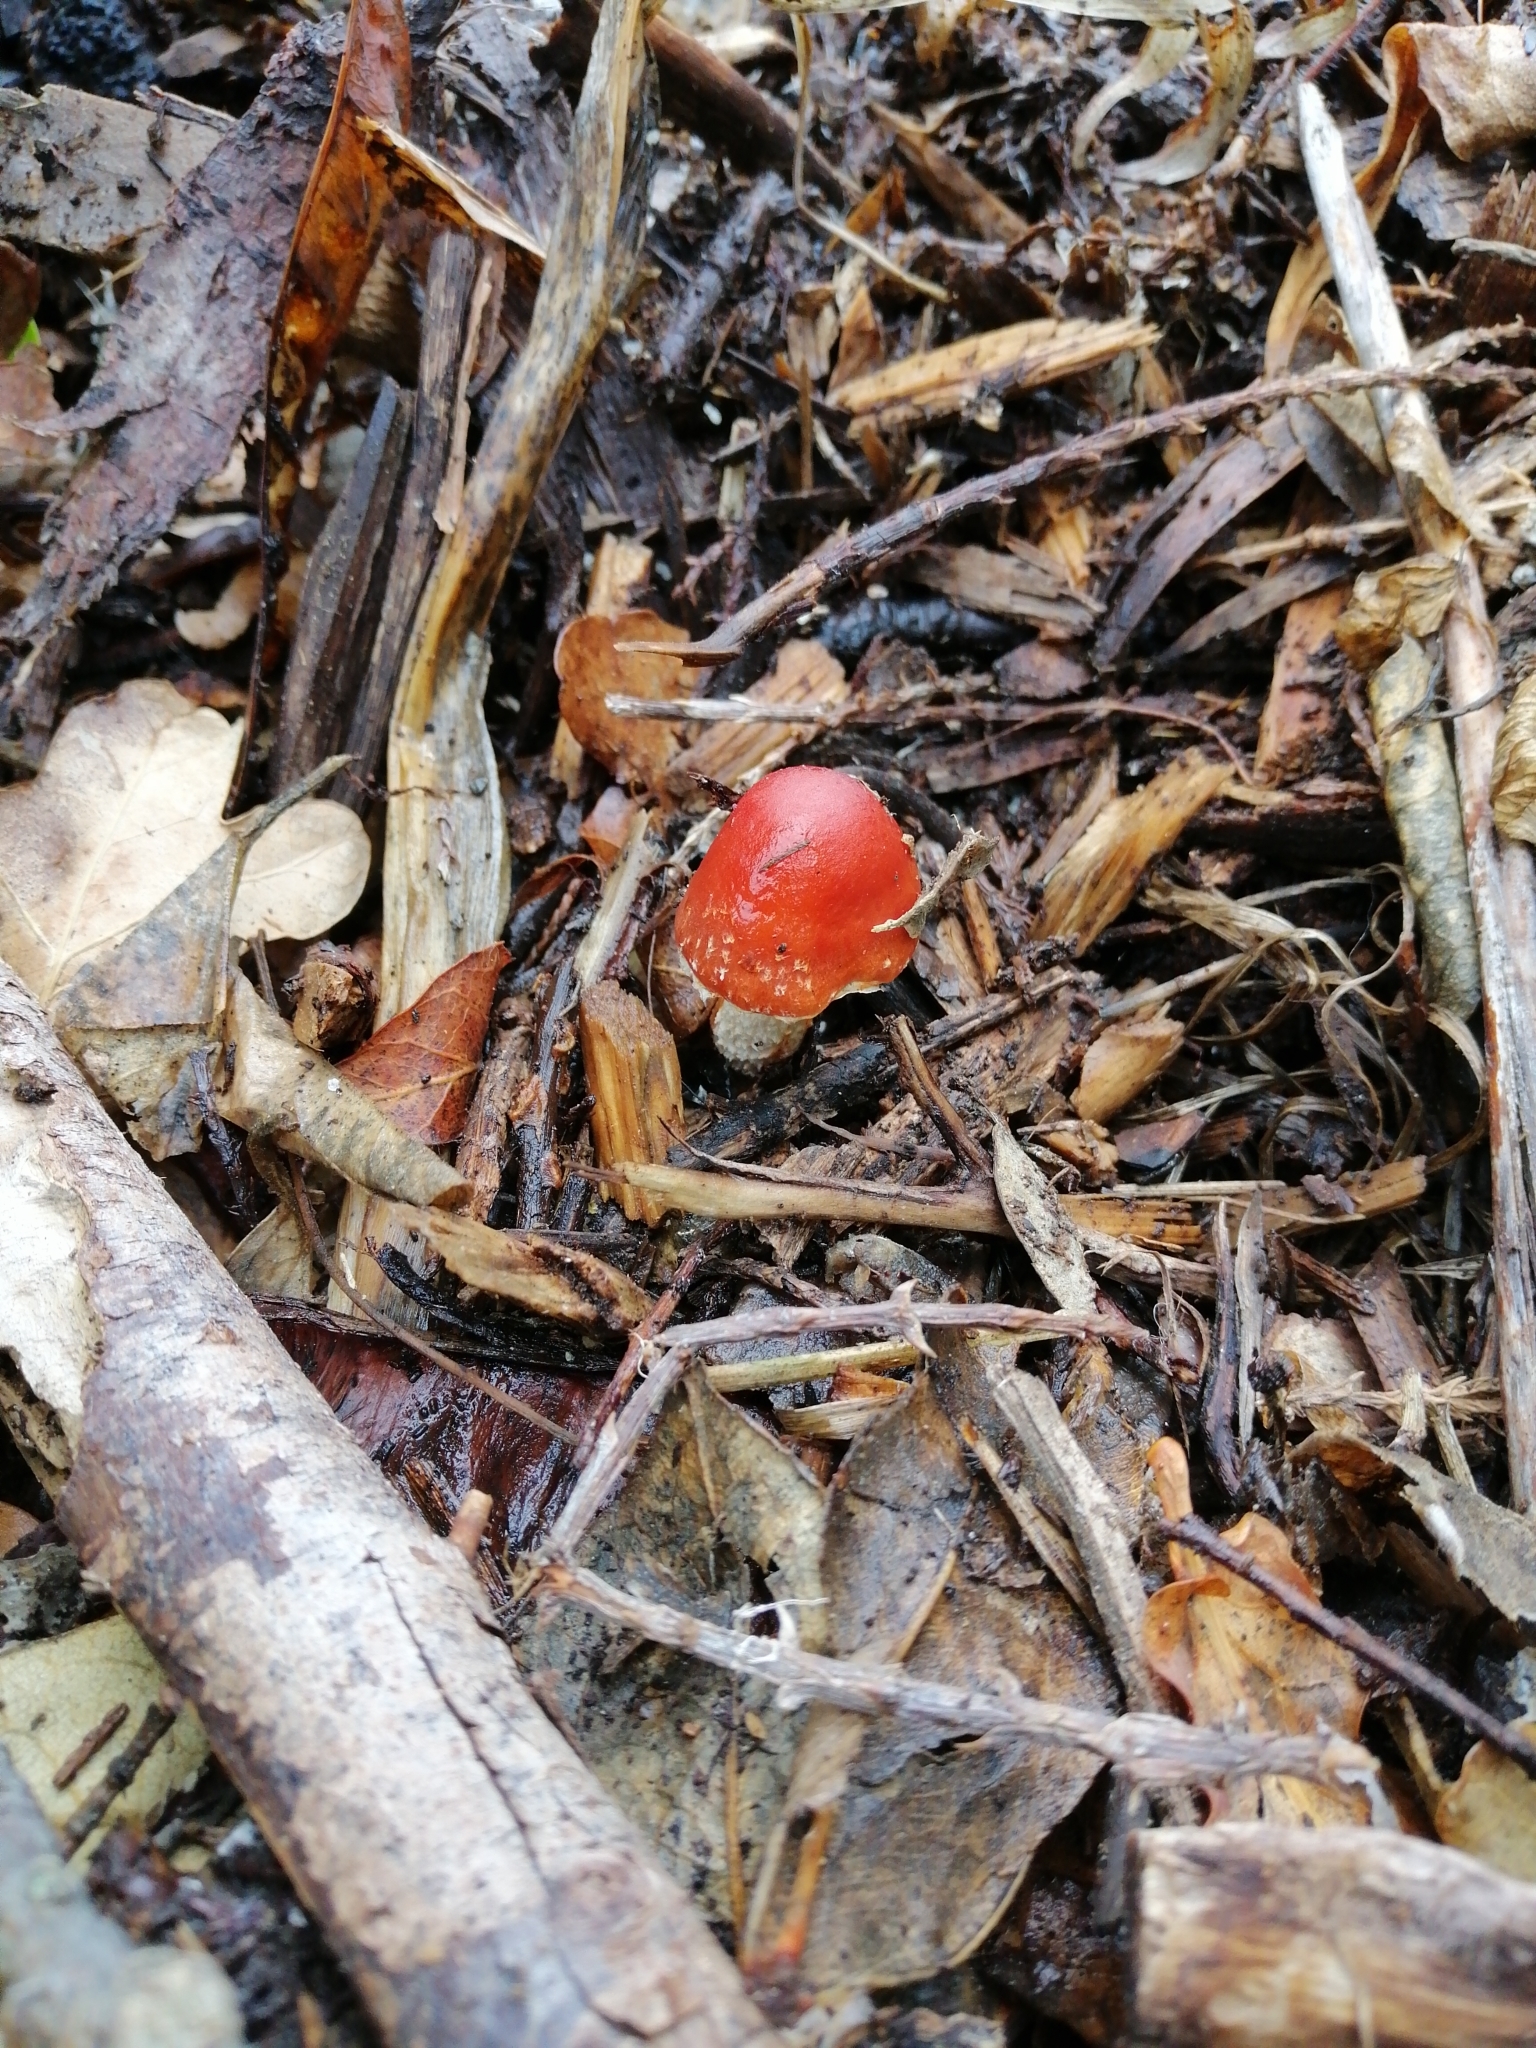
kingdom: Fungi
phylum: Basidiomycota
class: Agaricomycetes
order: Agaricales
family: Strophariaceae
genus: Leratiomyces
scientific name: Leratiomyces ceres
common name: Redlead roundhead
